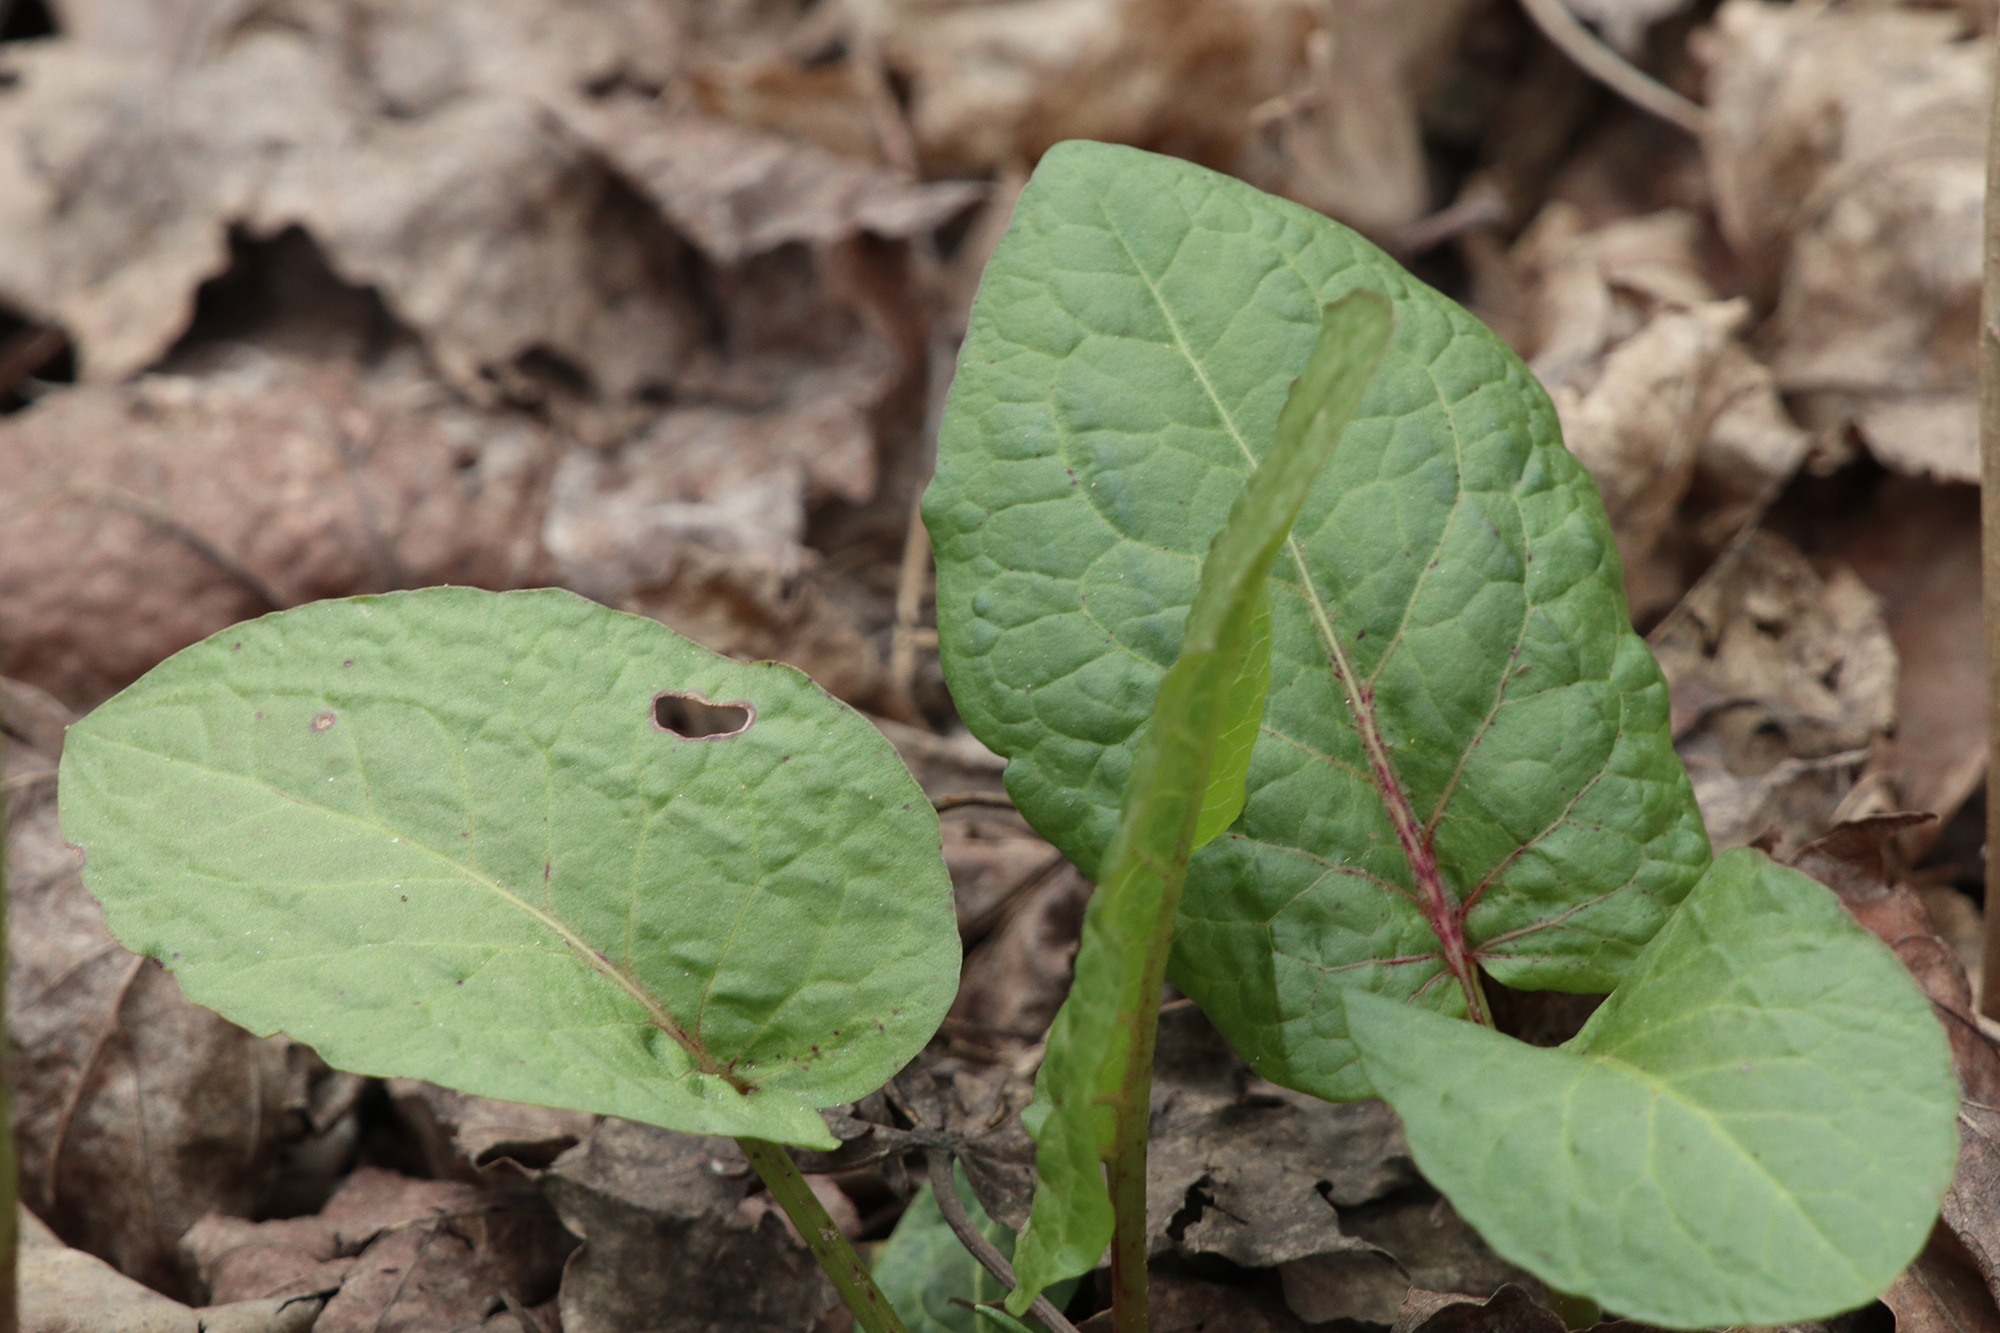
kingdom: Plantae
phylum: Tracheophyta
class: Magnoliopsida
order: Caryophyllales
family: Polygonaceae
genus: Rumex
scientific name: Rumex obtusifolius
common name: Bitter dock
